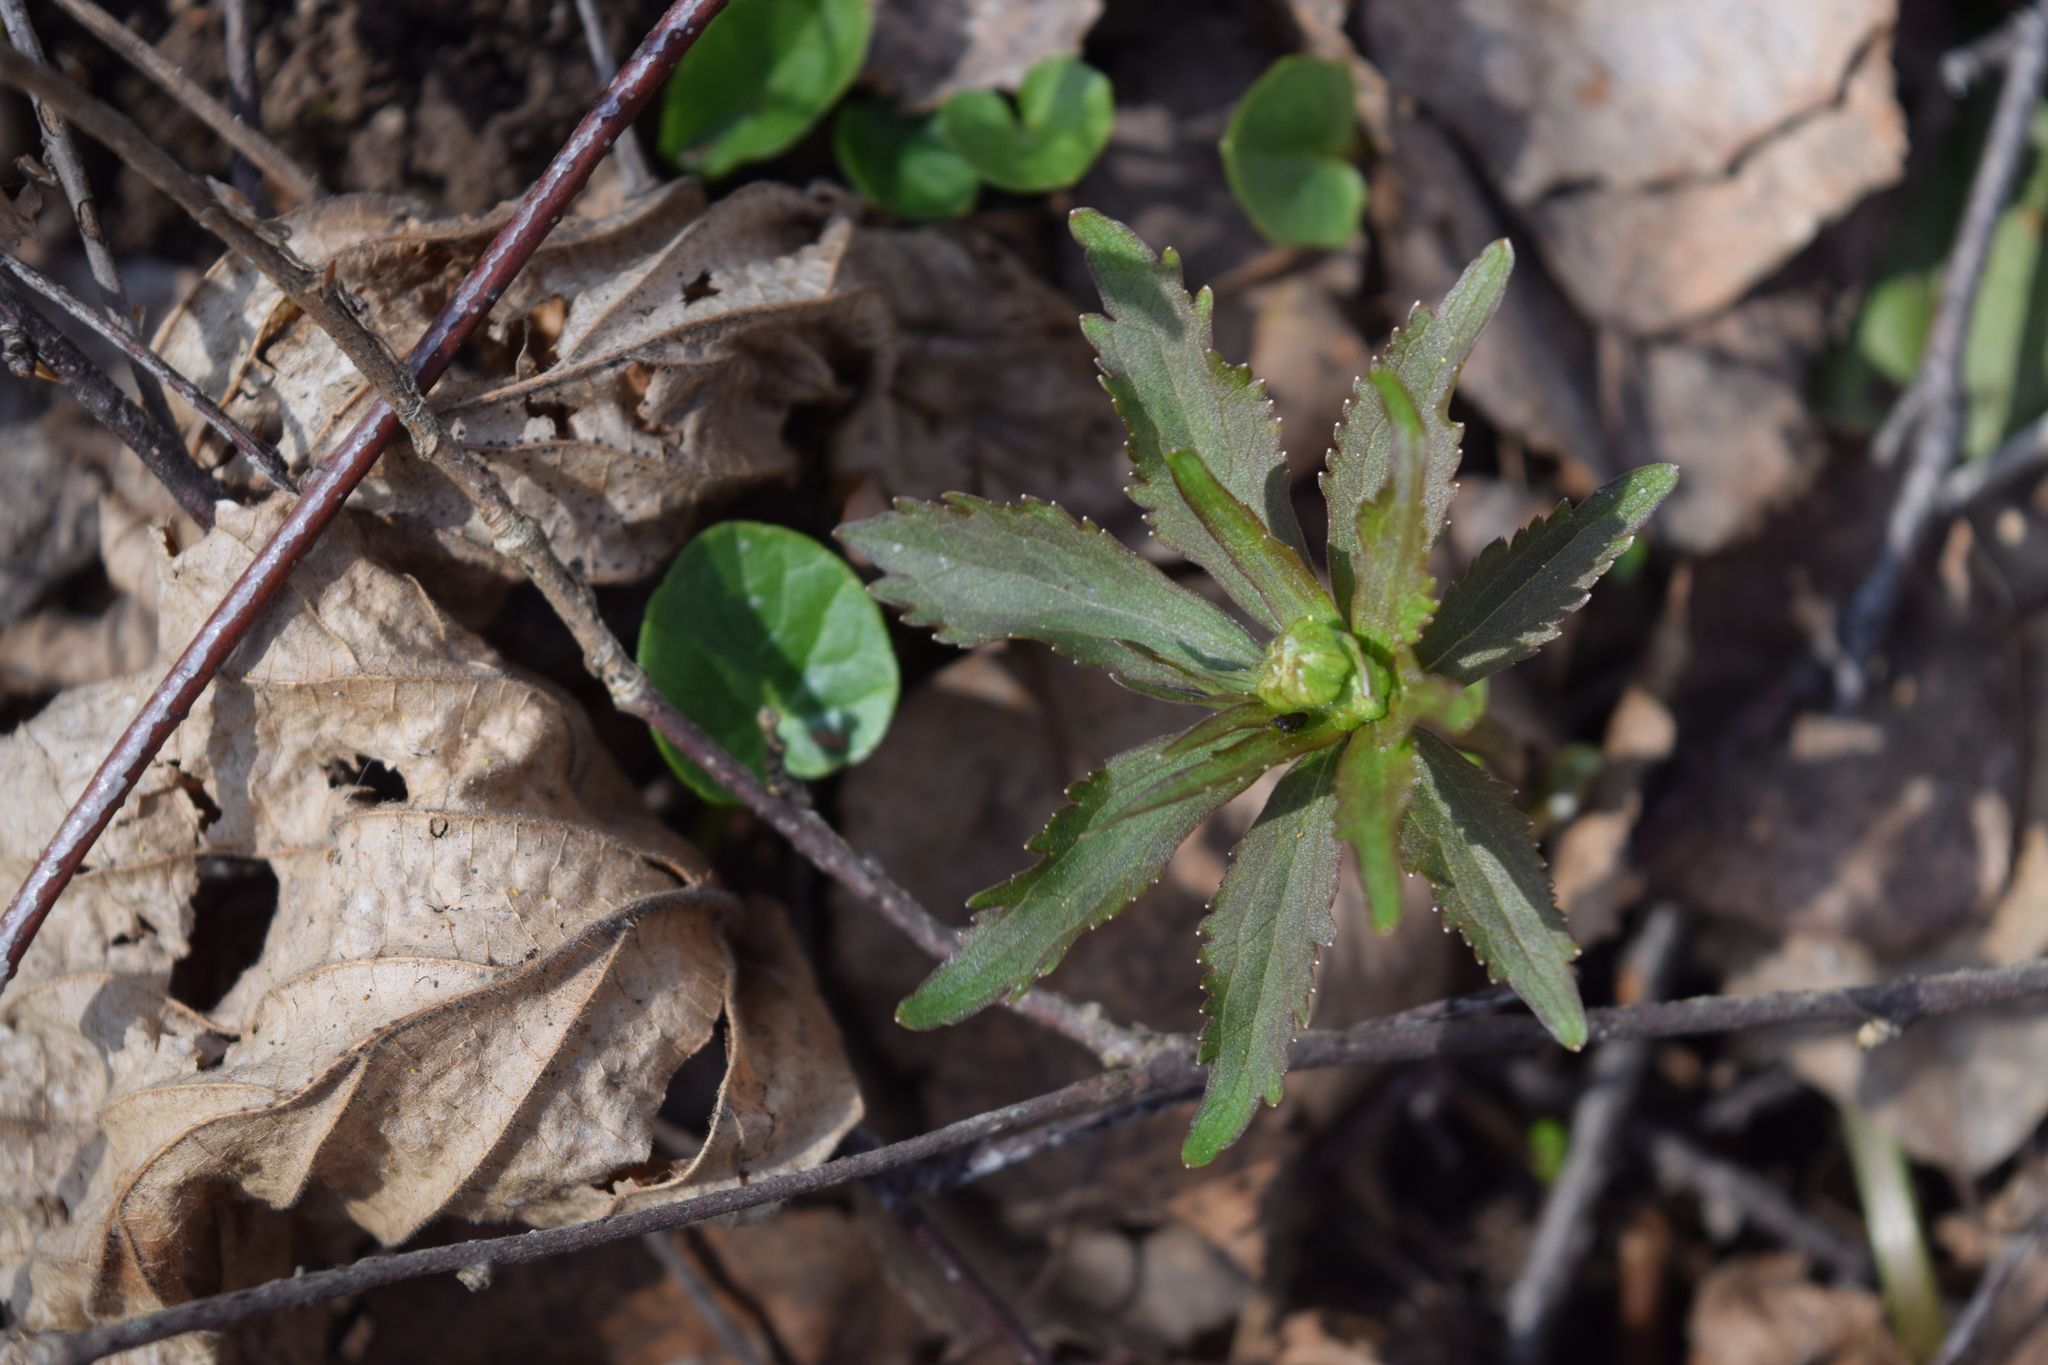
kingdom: Plantae
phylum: Tracheophyta
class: Magnoliopsida
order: Ranunculales
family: Ranunculaceae
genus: Ranunculus
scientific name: Ranunculus cassubicus
